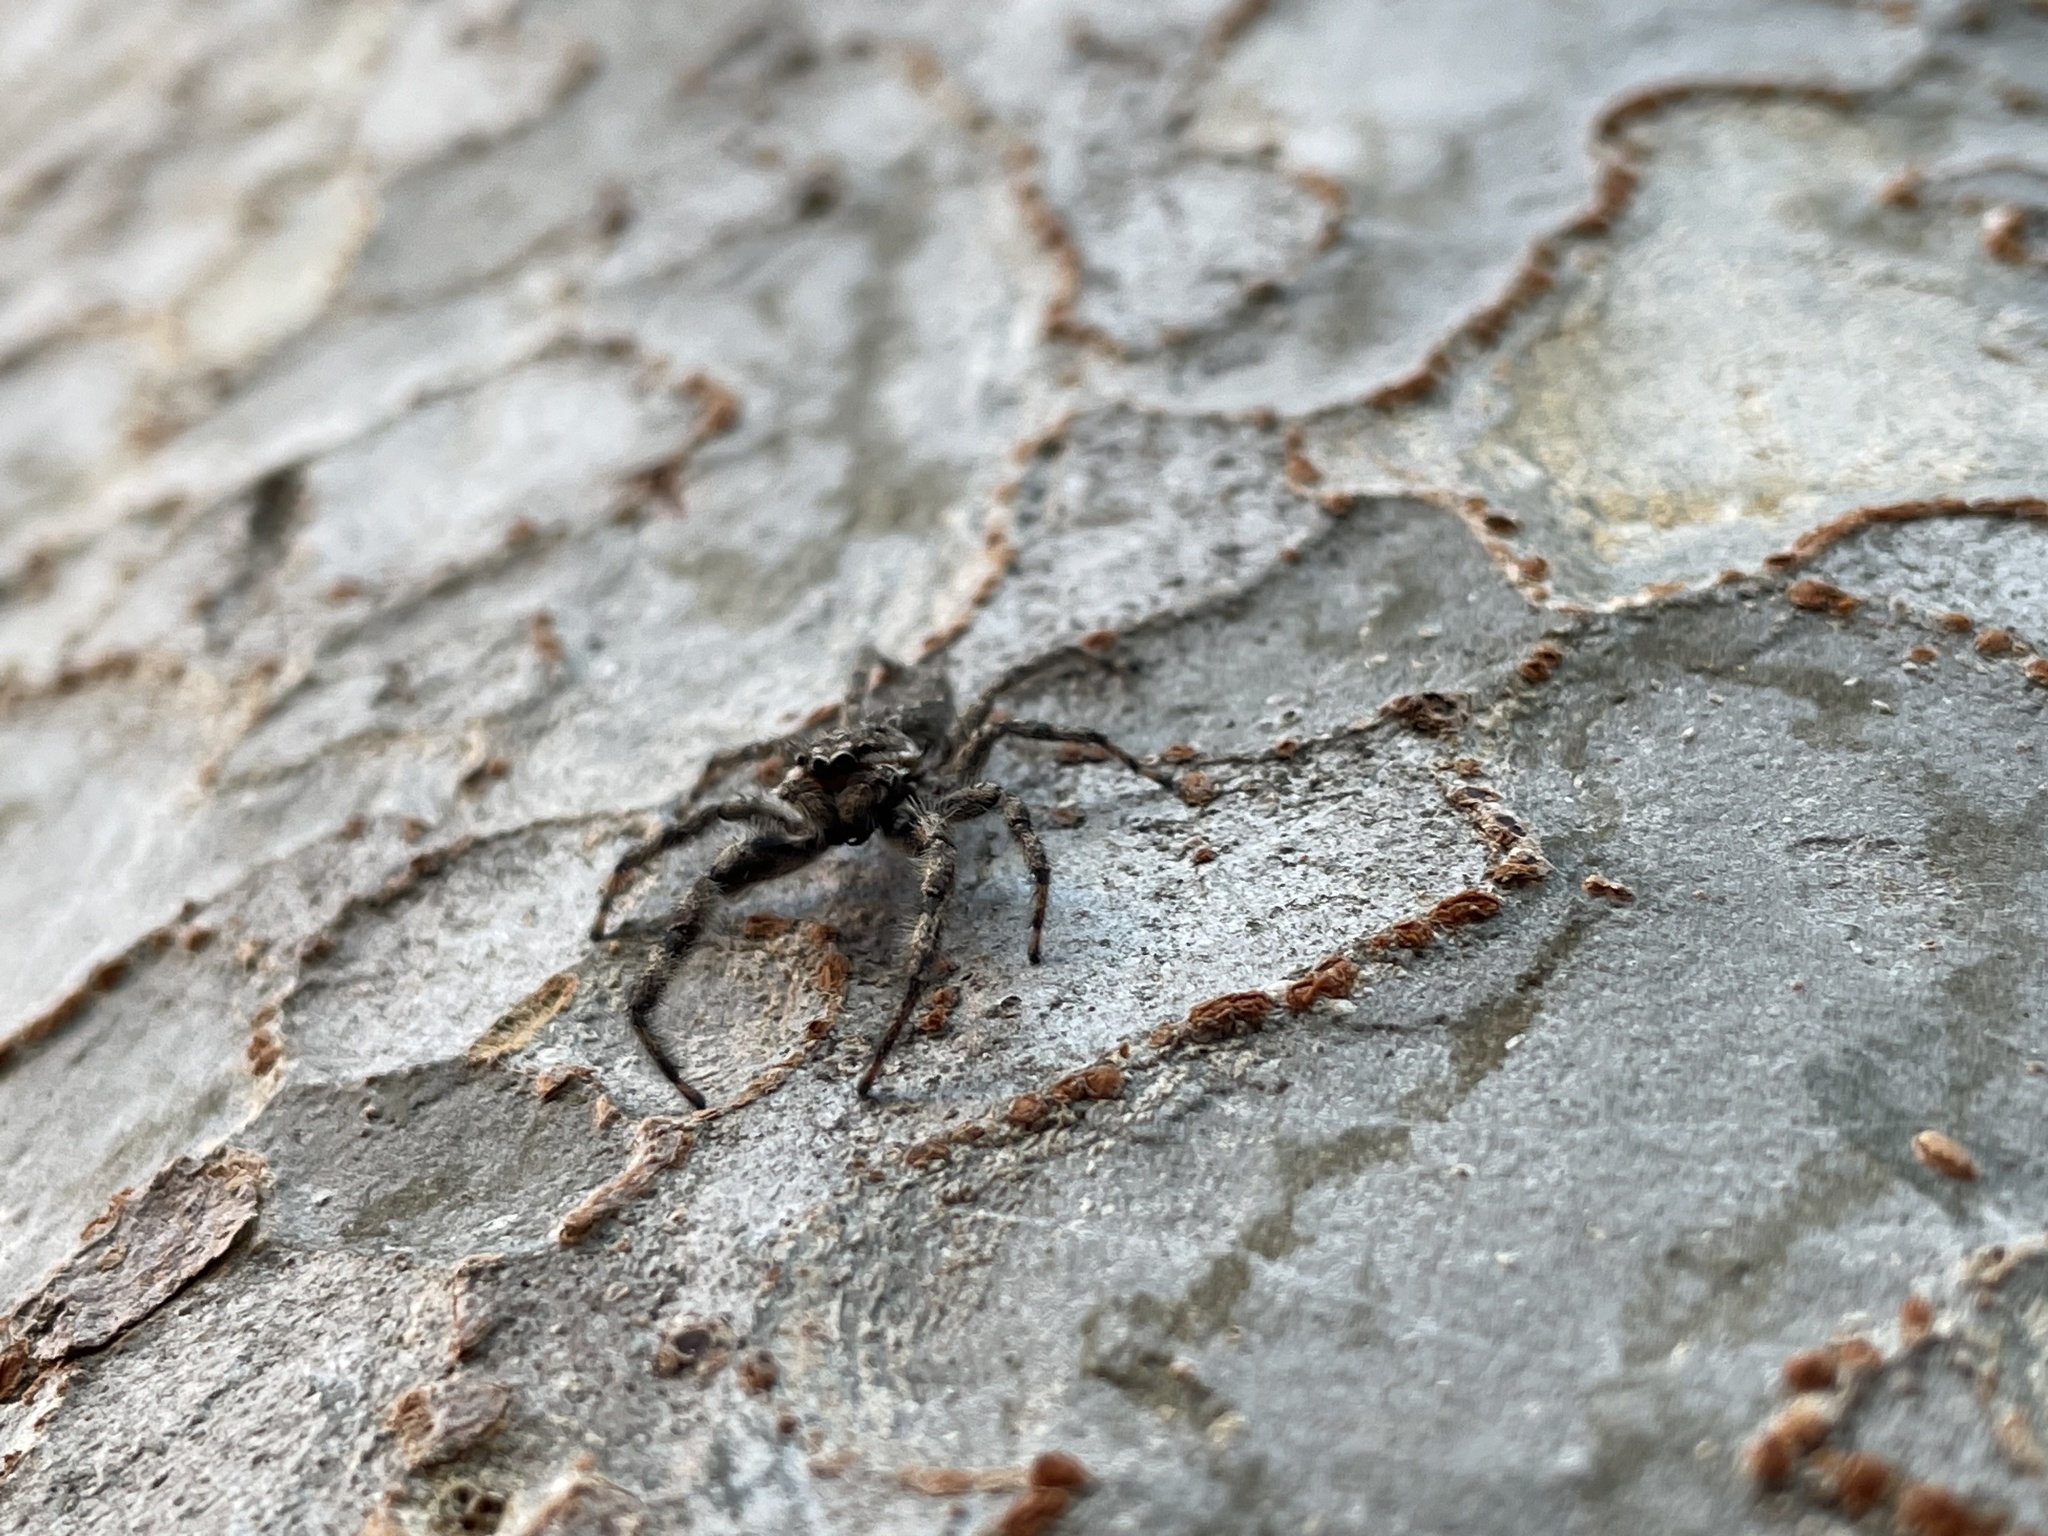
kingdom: Animalia
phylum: Arthropoda
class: Arachnida
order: Araneae
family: Salticidae
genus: Platycryptus
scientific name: Platycryptus undatus
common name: Tan jumping spider
